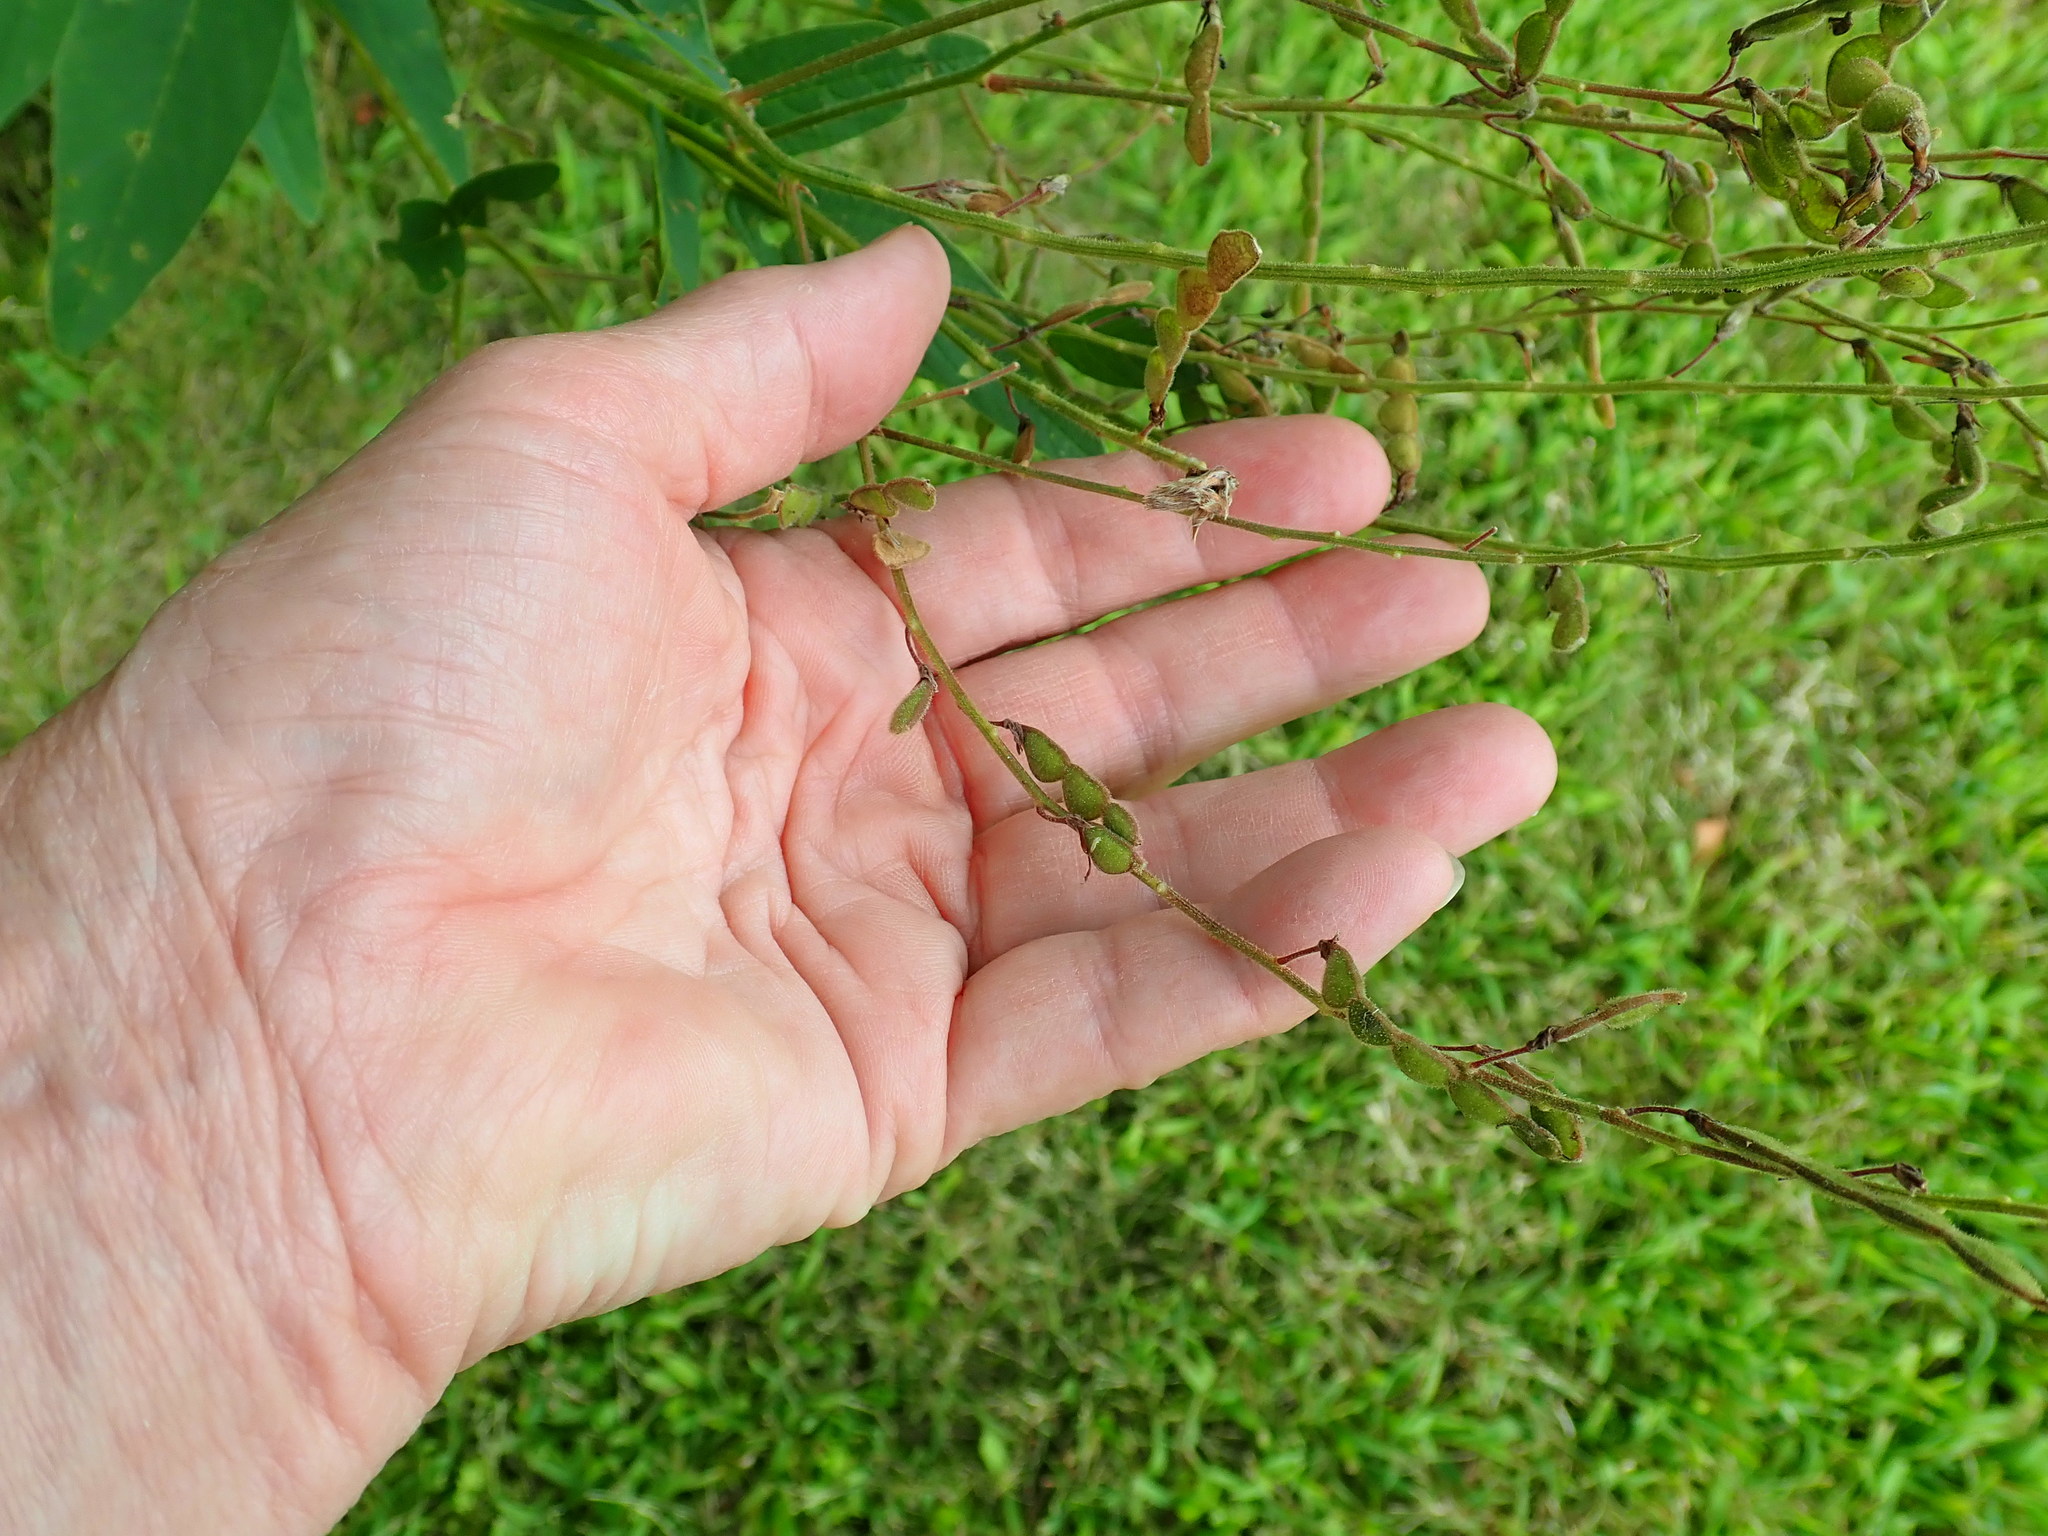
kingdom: Plantae
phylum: Tracheophyta
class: Magnoliopsida
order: Fabales
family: Fabaceae
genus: Desmodium
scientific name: Desmodium canadense
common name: Canada tick-trefoil
